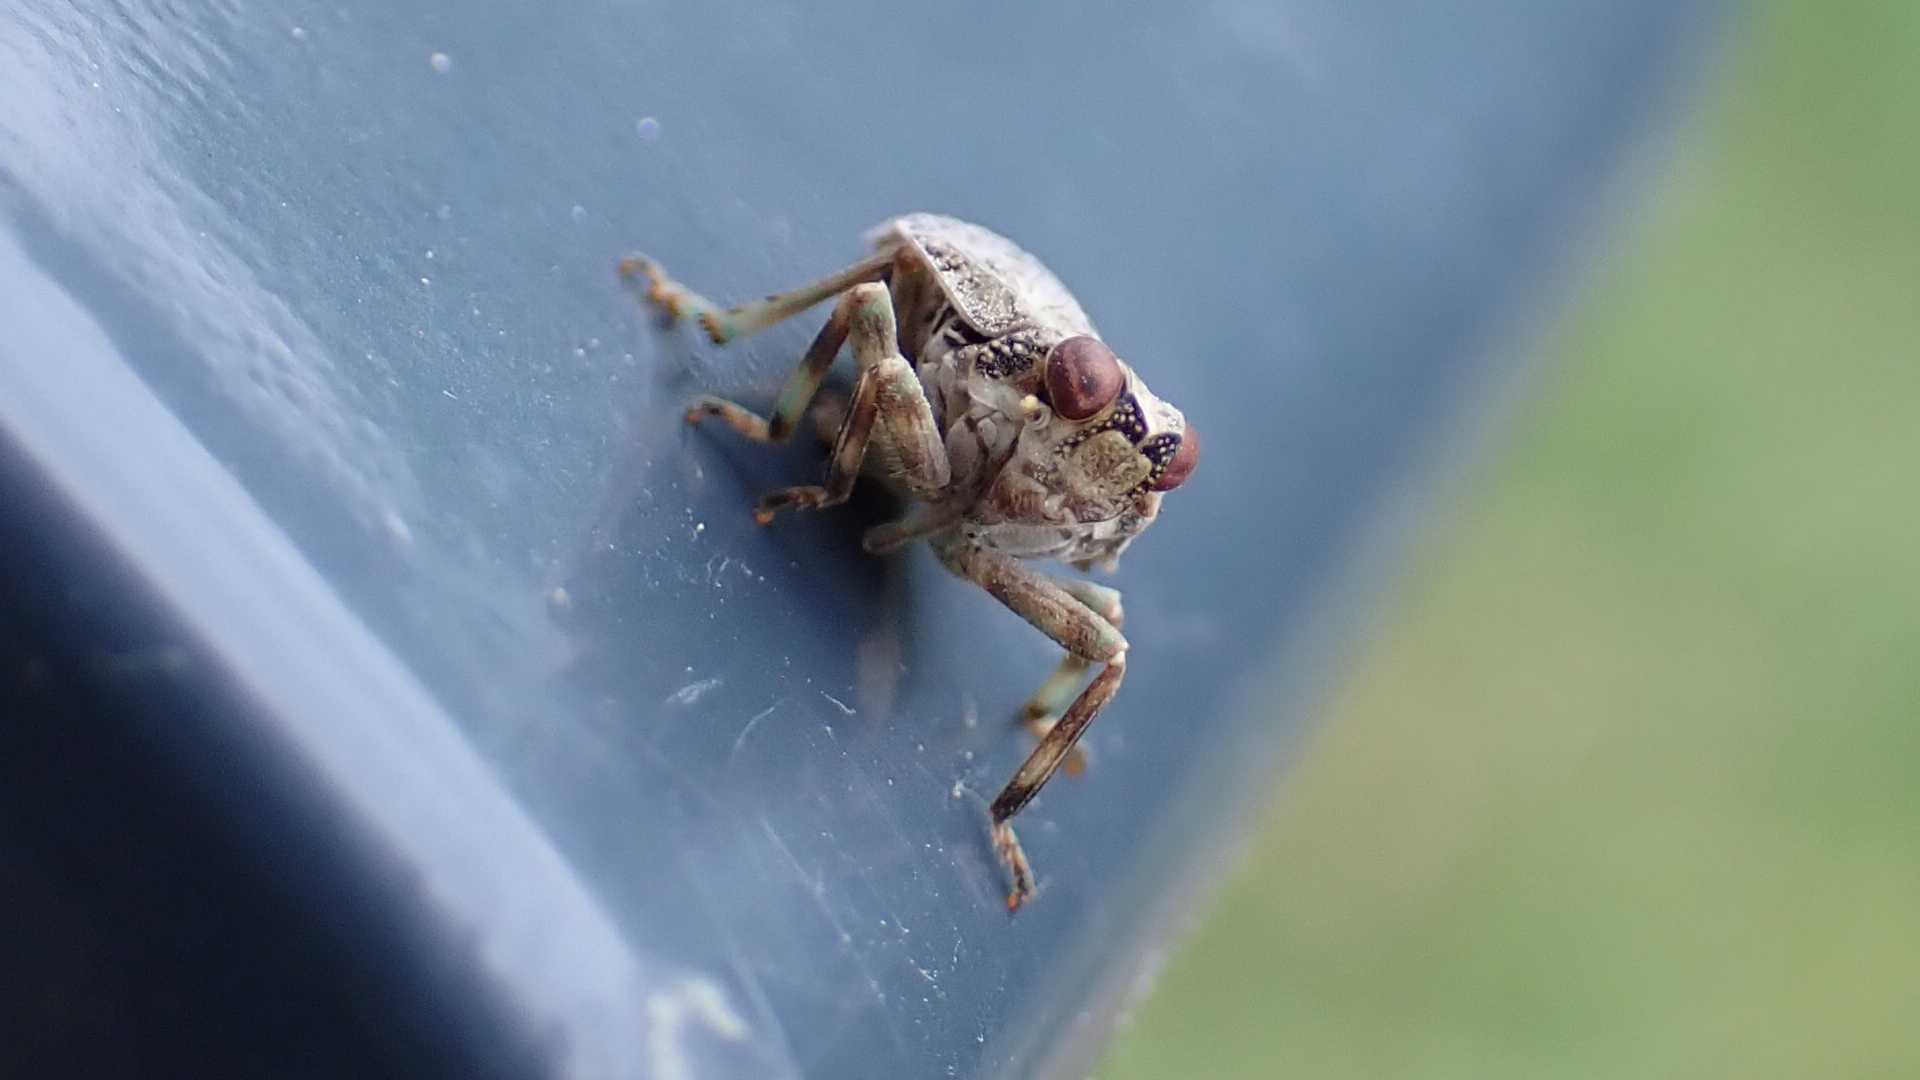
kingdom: Animalia
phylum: Arthropoda
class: Insecta
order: Hemiptera
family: Issidae
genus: Issus
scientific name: Issus coleoptratus
